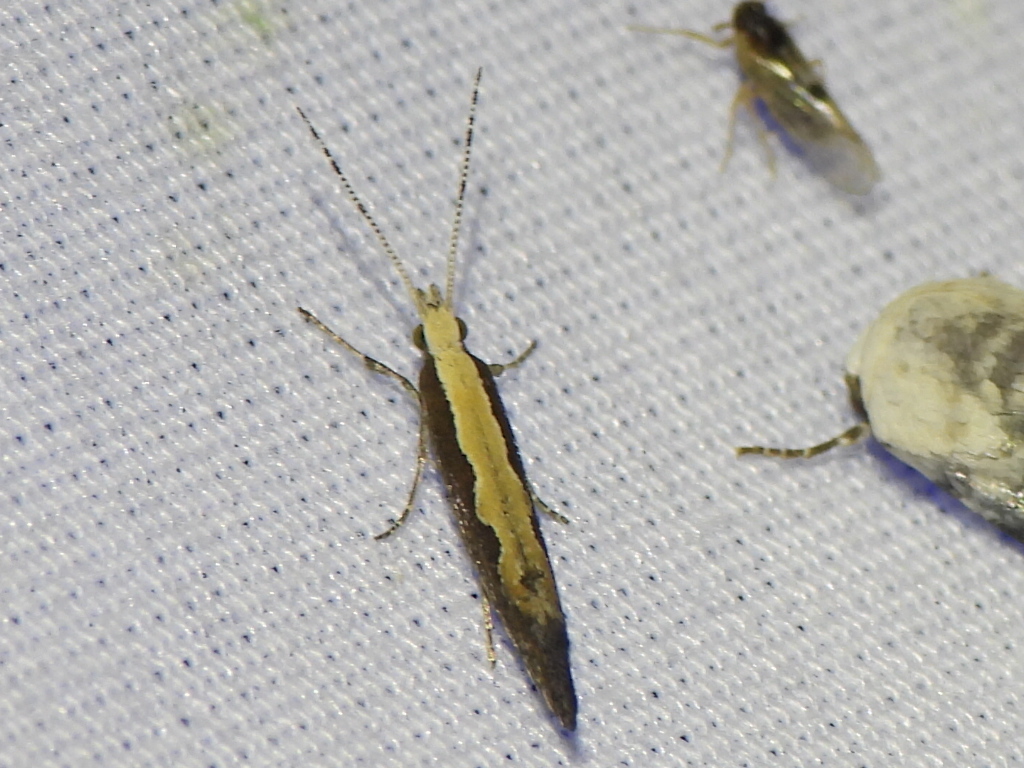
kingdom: Animalia
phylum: Arthropoda
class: Insecta
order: Lepidoptera
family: Plutellidae
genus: Plutella
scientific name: Plutella xylostella
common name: Diamond-back moth
